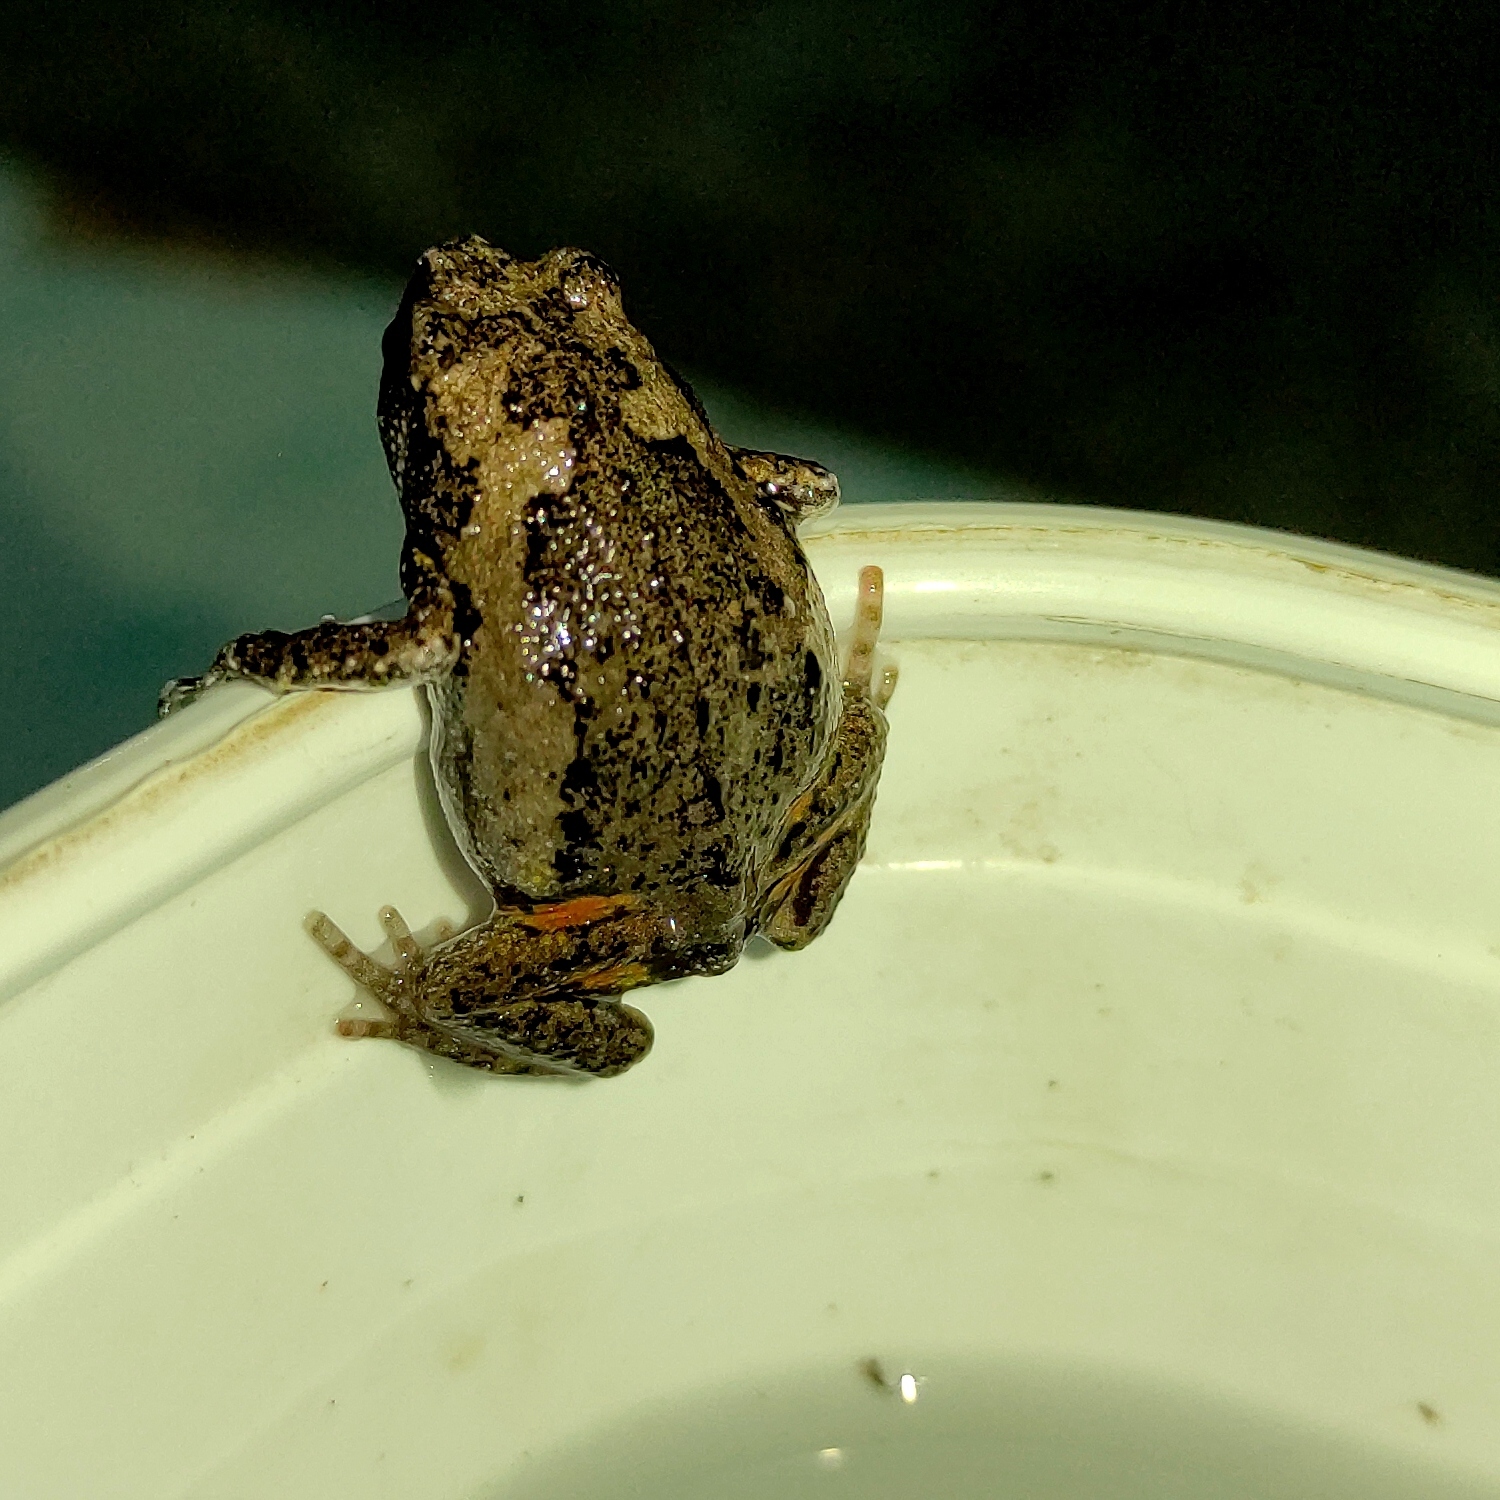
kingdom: Animalia
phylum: Chordata
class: Amphibia
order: Anura
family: Microhylidae
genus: Kaloula
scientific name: Kaloula baleata
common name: Brown,javanese bullfrog
